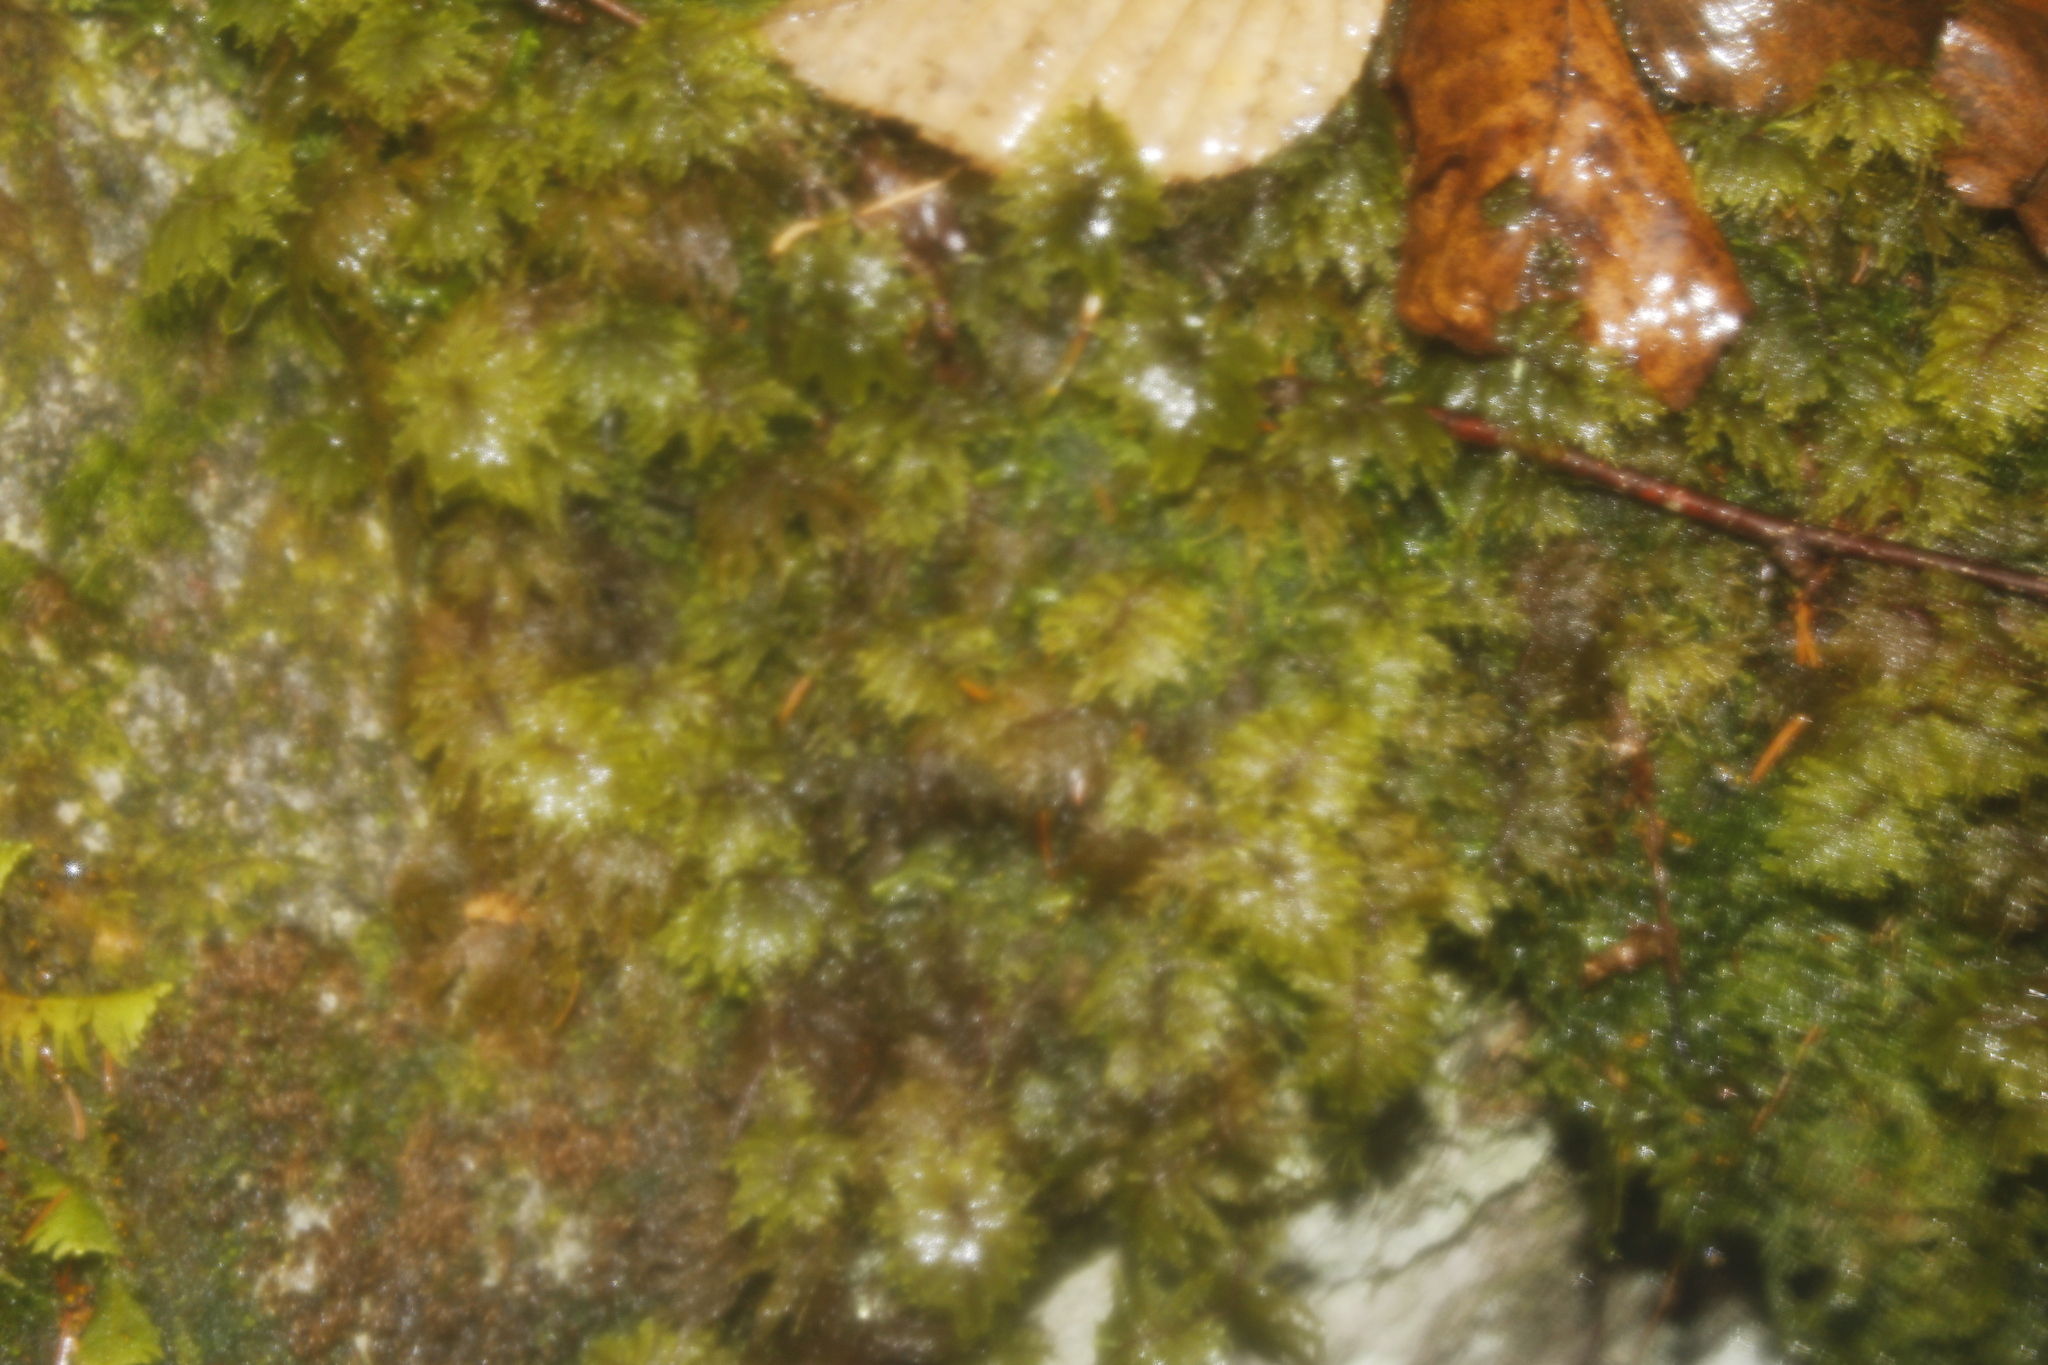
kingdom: Plantae
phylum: Bryophyta
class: Bryopsida
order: Hypnales
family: Hylocomiaceae
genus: Hylocomium
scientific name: Hylocomium splendens
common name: Stairstep moss
